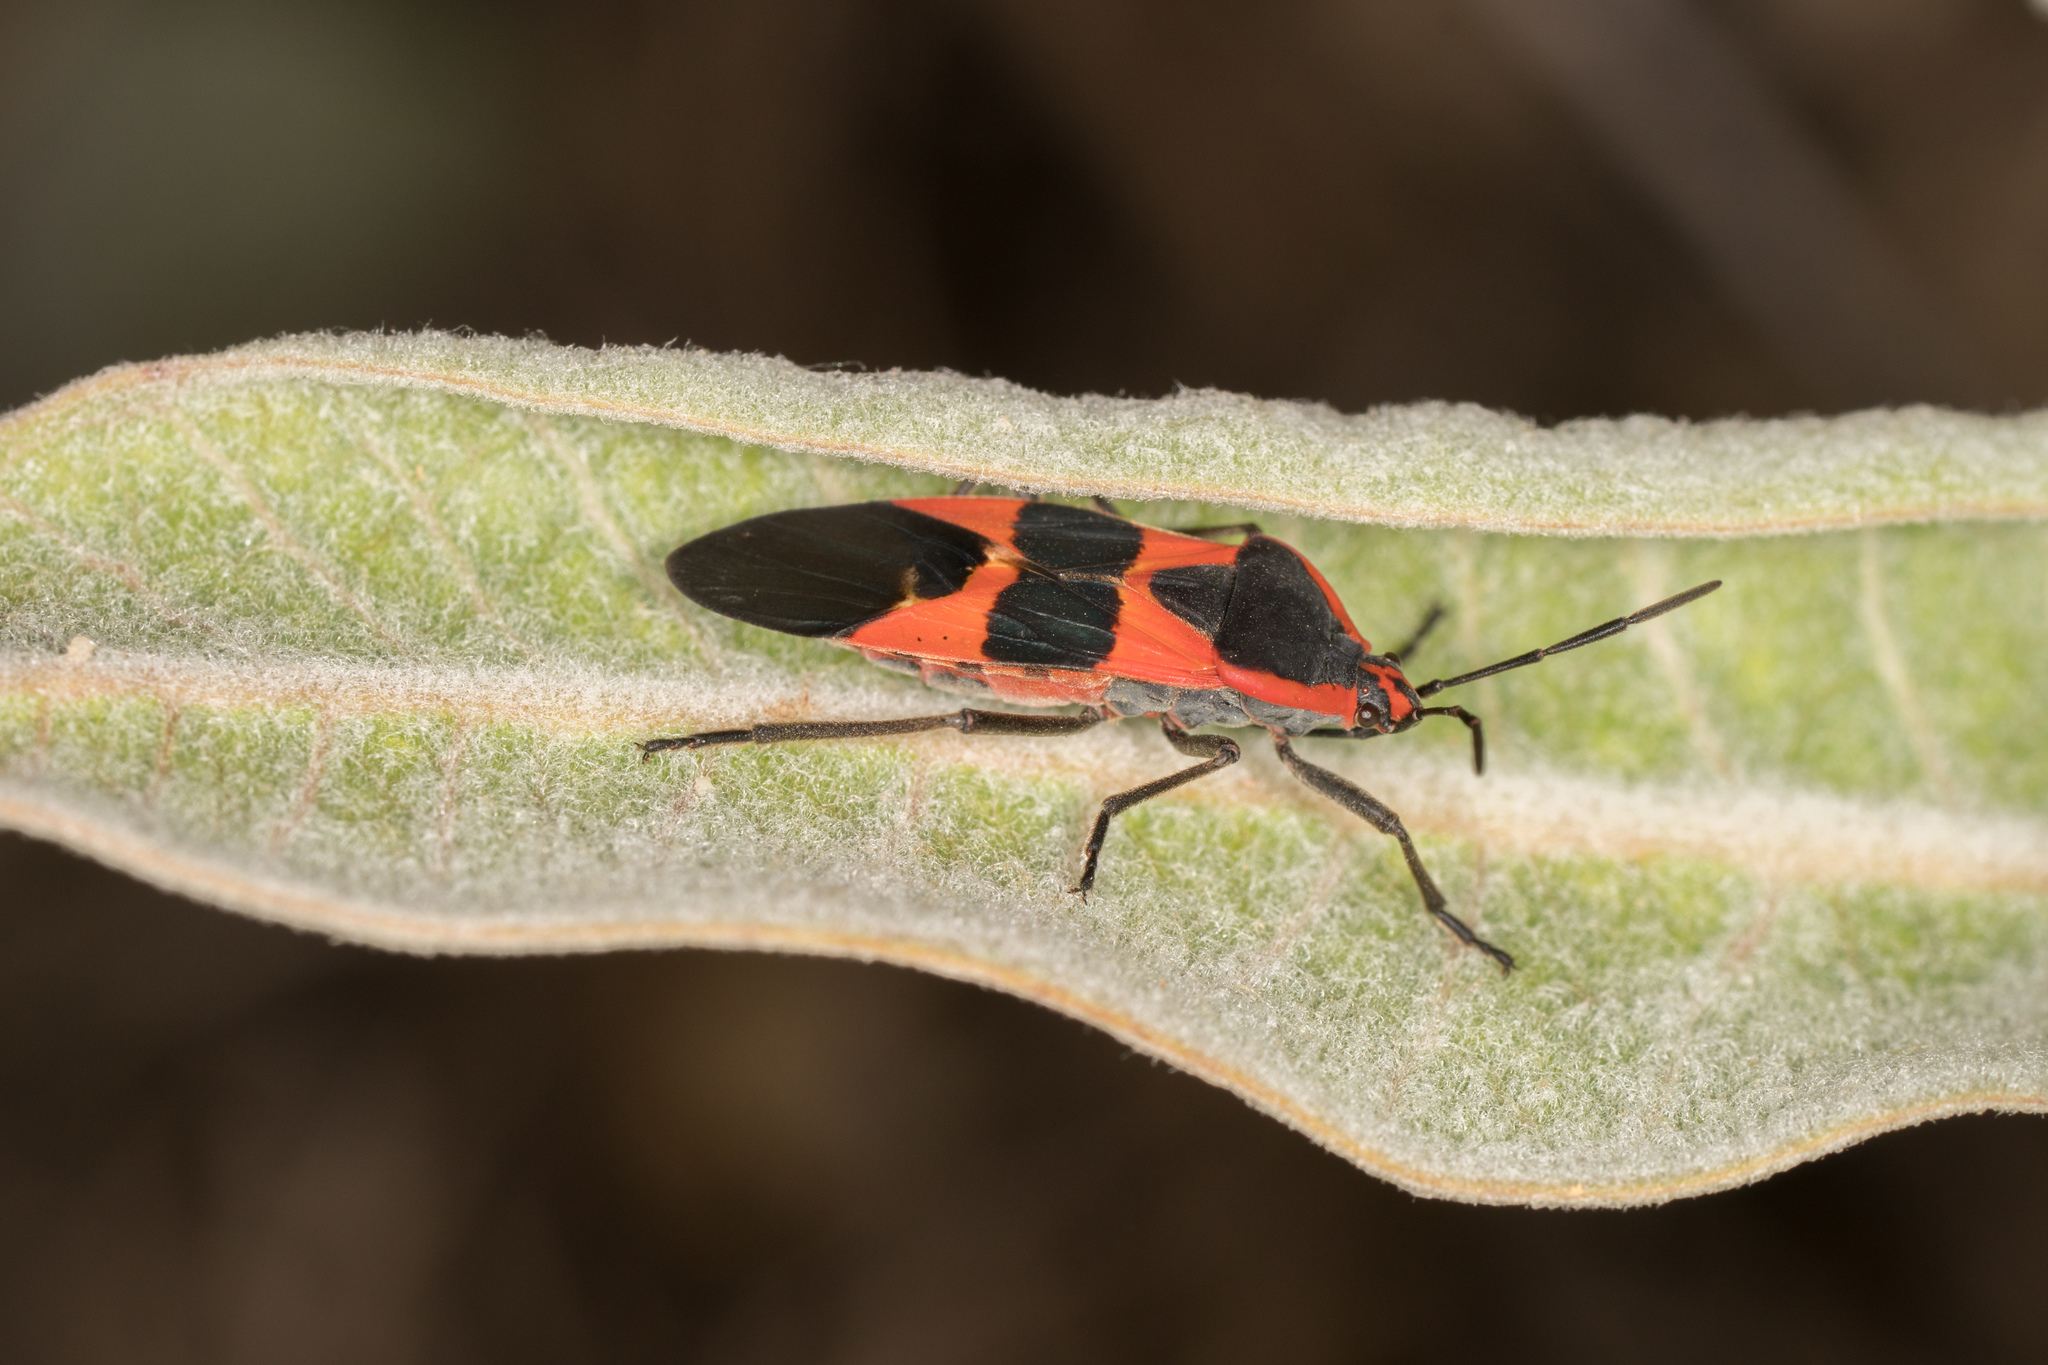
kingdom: Animalia
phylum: Arthropoda
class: Insecta
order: Hemiptera
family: Lygaeidae
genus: Oncopeltus
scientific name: Oncopeltus fasciatus
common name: Large milkweed bug
